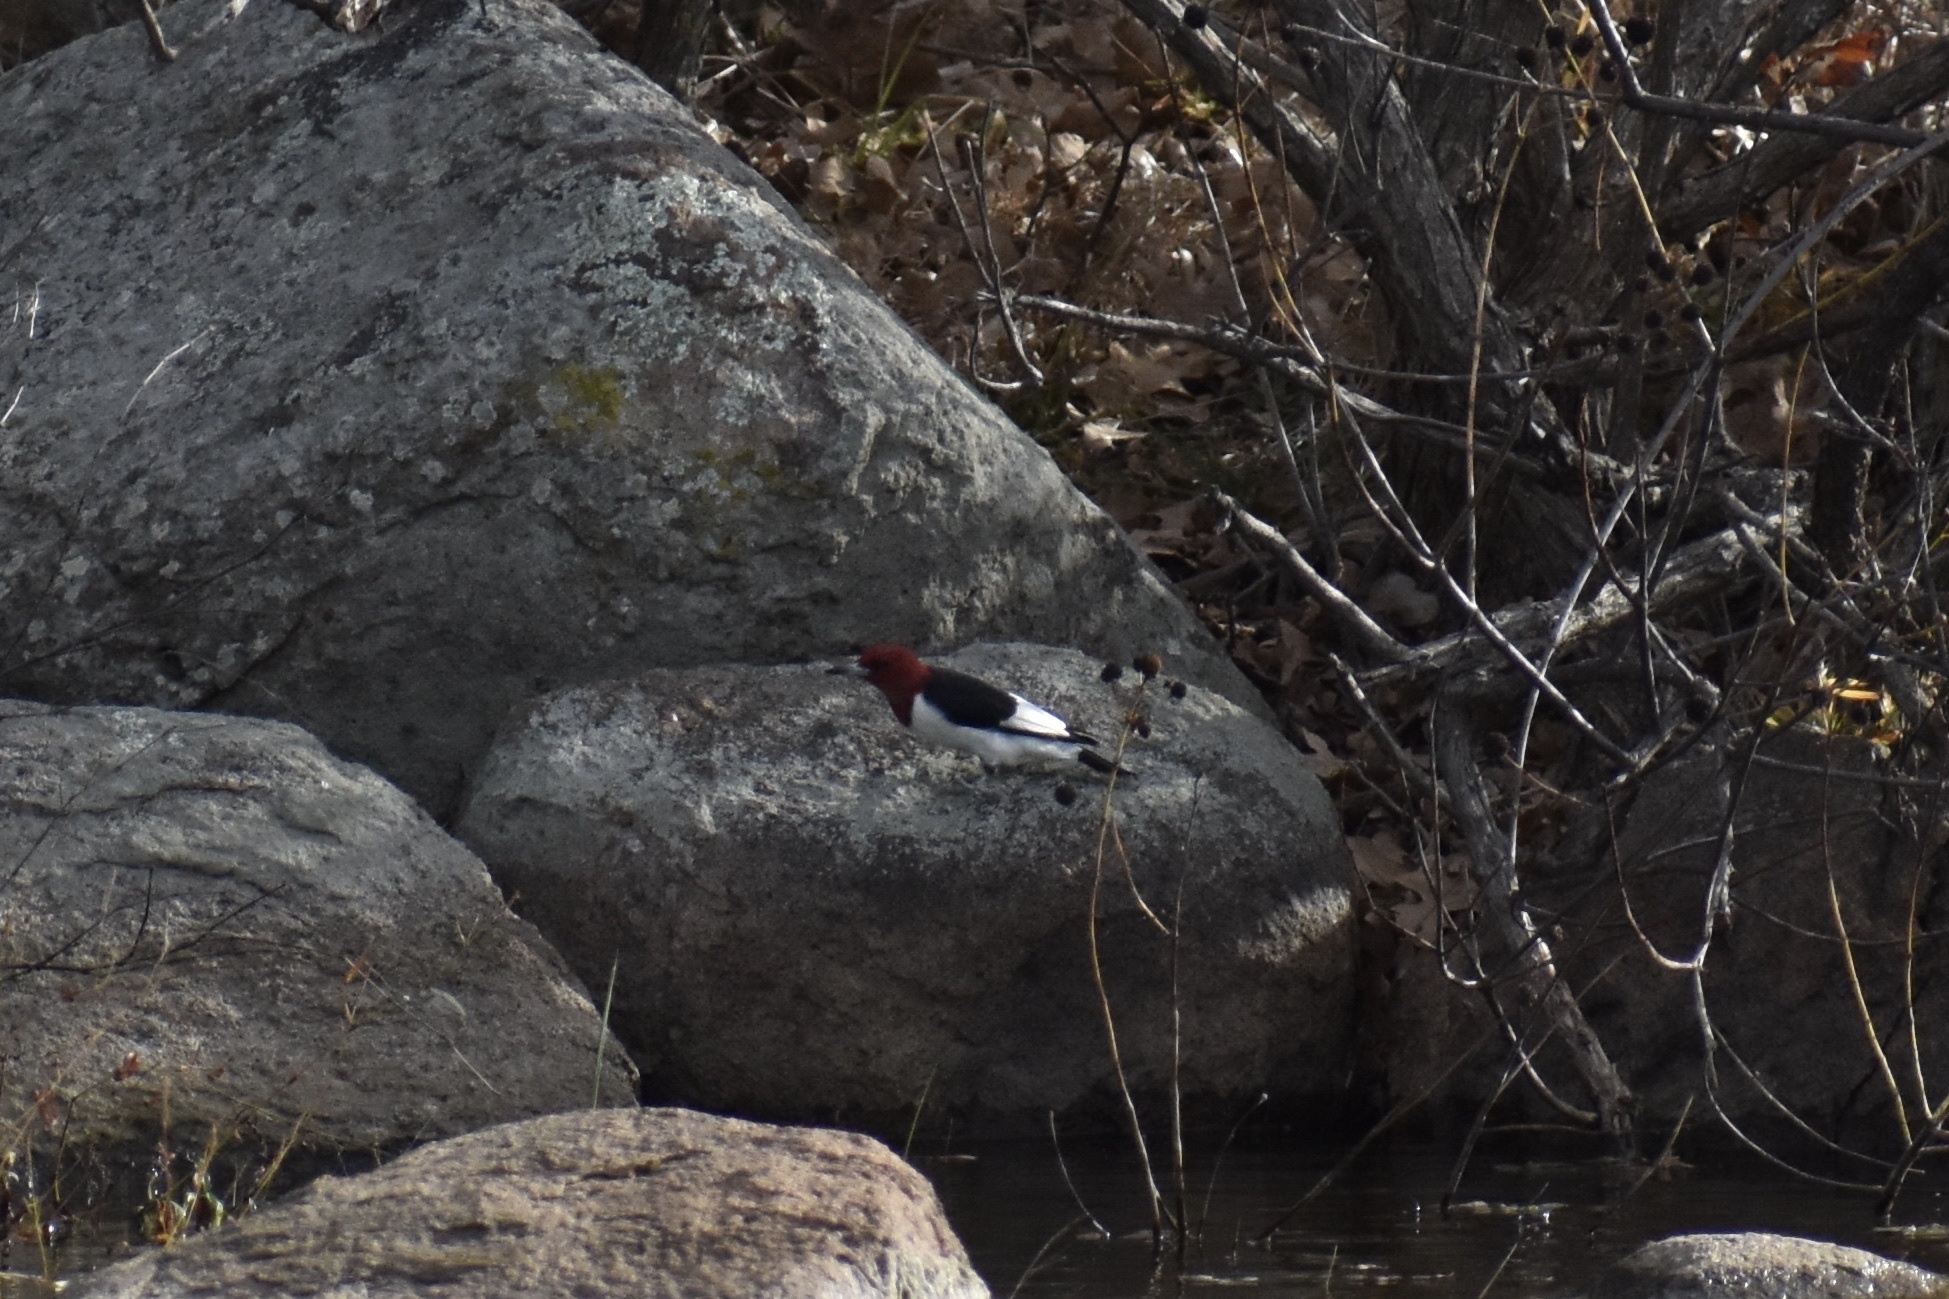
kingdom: Animalia
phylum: Chordata
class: Aves
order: Piciformes
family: Picidae
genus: Melanerpes
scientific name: Melanerpes erythrocephalus
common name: Red-headed woodpecker
